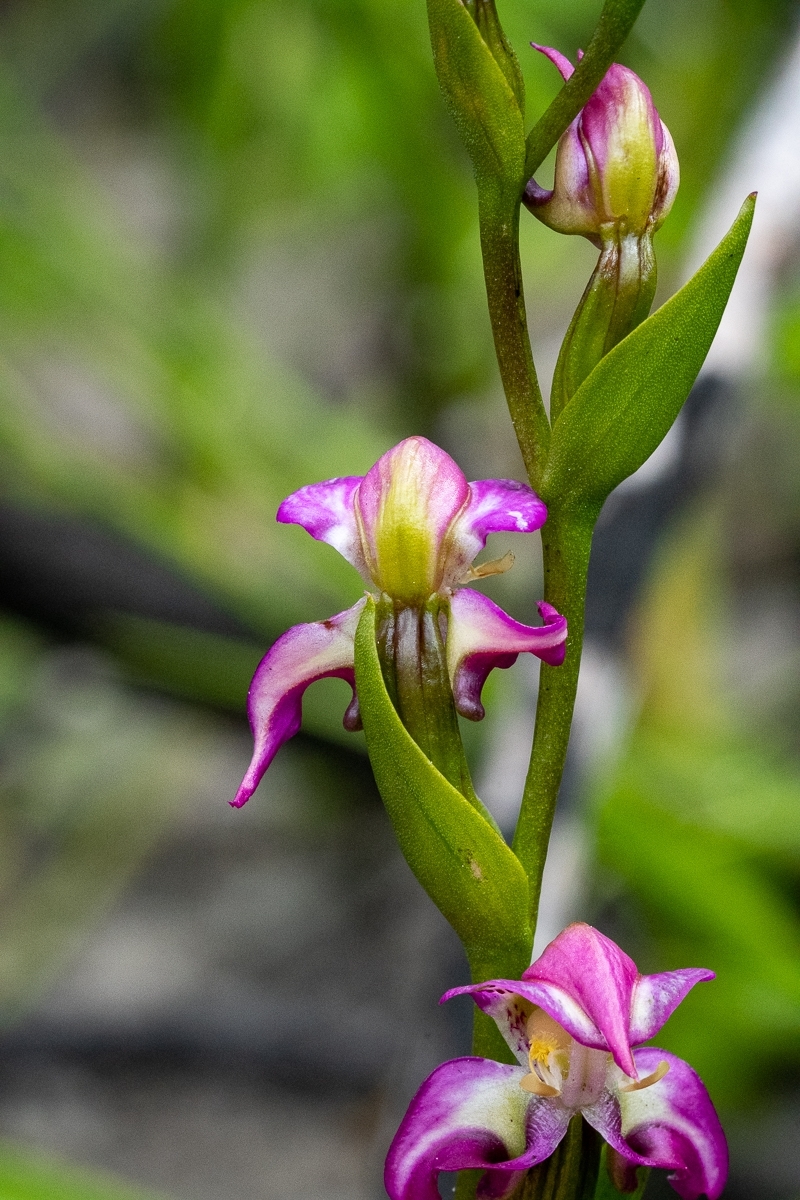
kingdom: Plantae
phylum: Tracheophyta
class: Liliopsida
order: Asparagales
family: Orchidaceae
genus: Disperis
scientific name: Disperis paludosa
